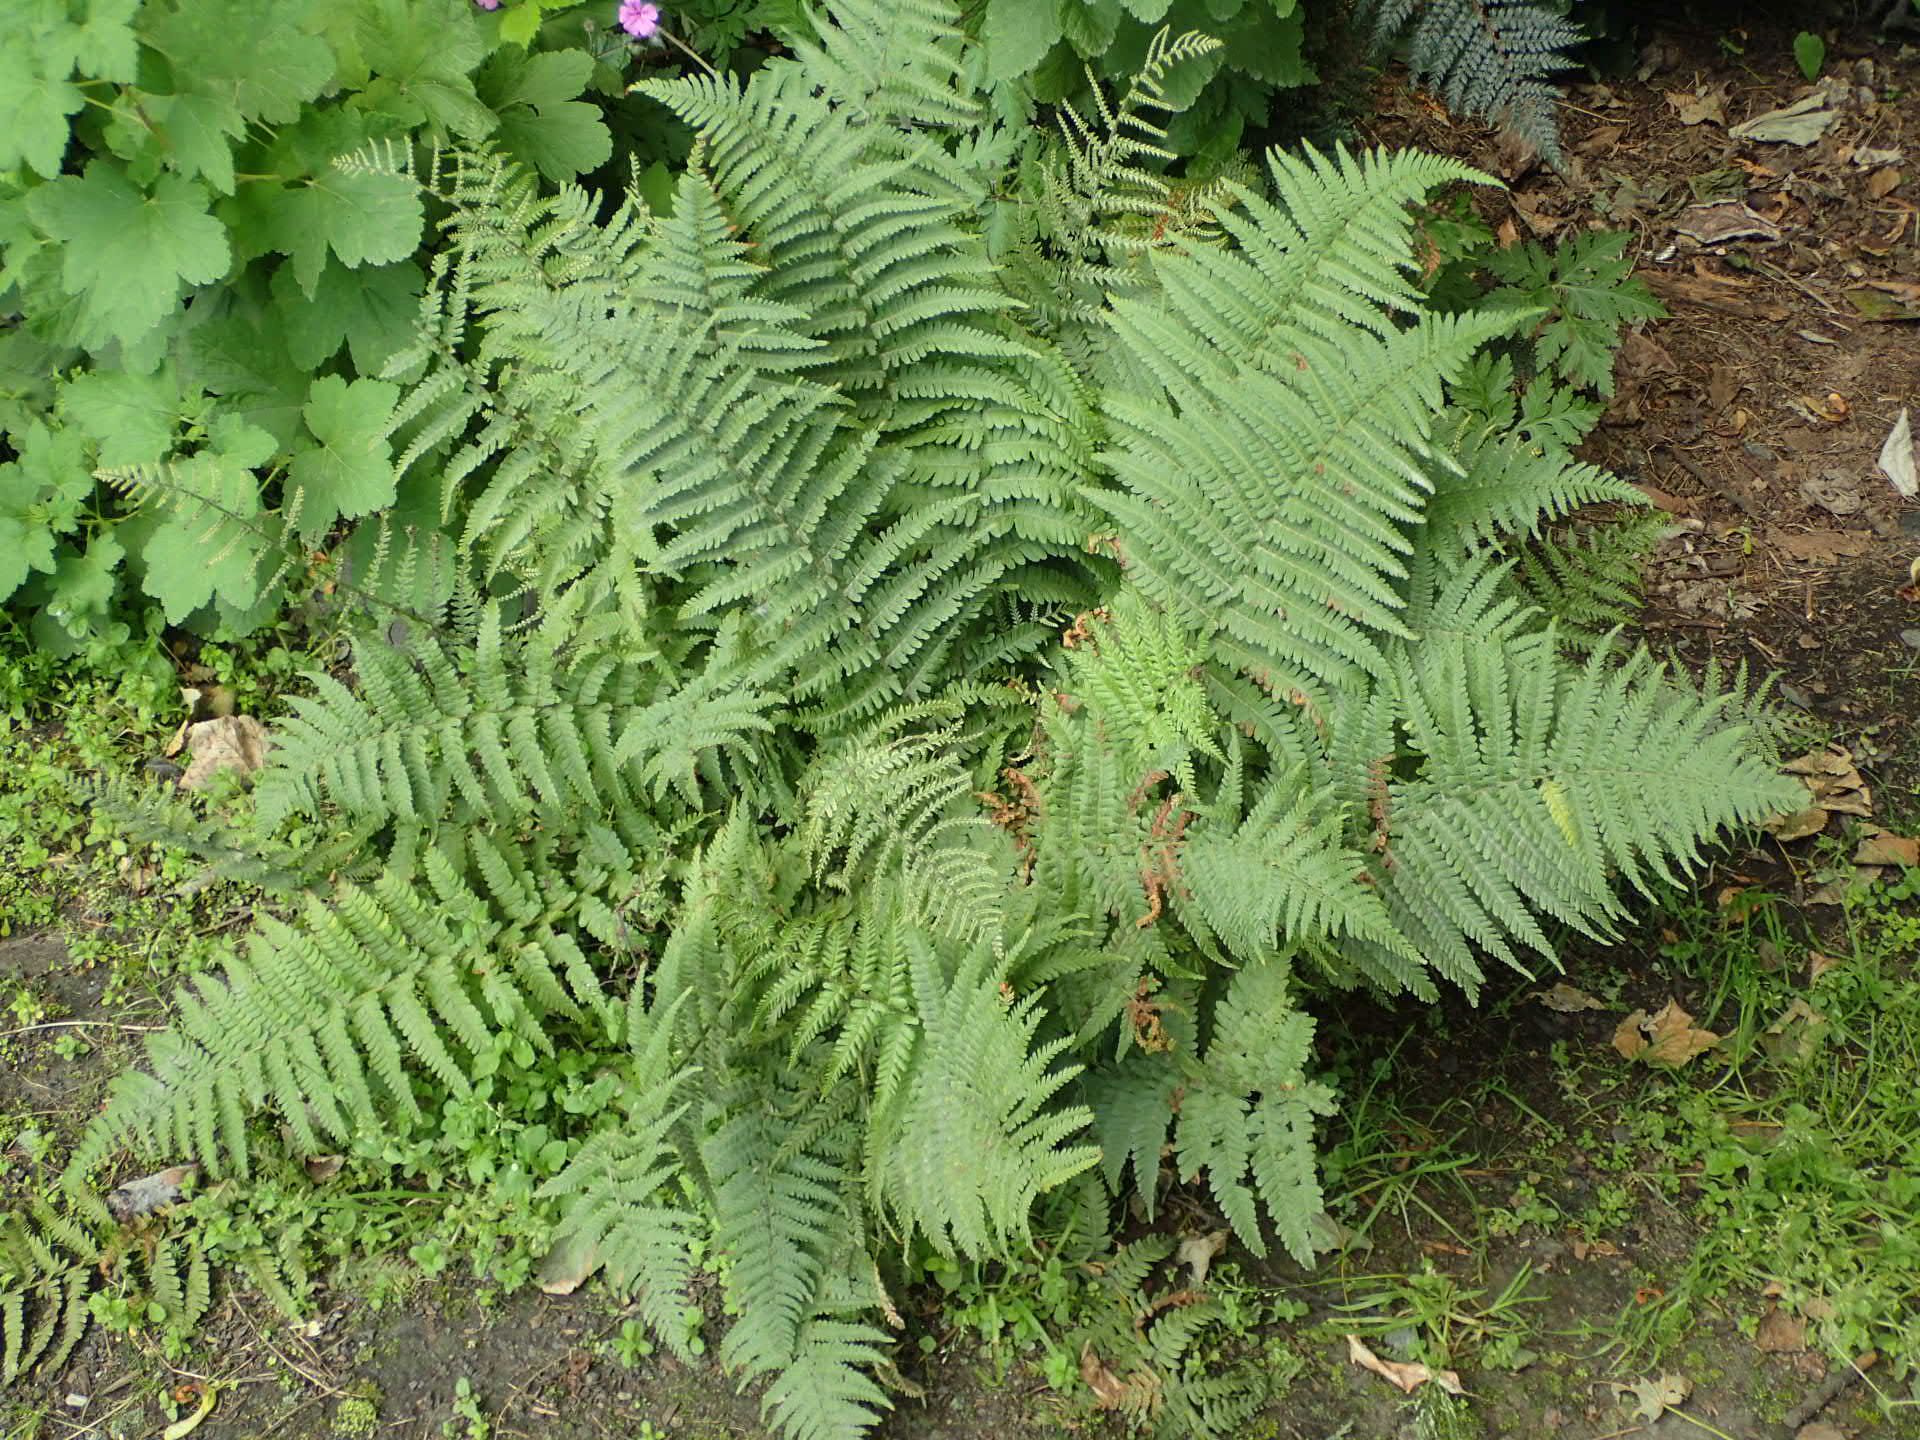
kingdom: Plantae
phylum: Tracheophyta
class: Polypodiopsida
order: Polypodiales
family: Dryopteridaceae
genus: Dryopteris
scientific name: Dryopteris filix-mas
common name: Male fern
